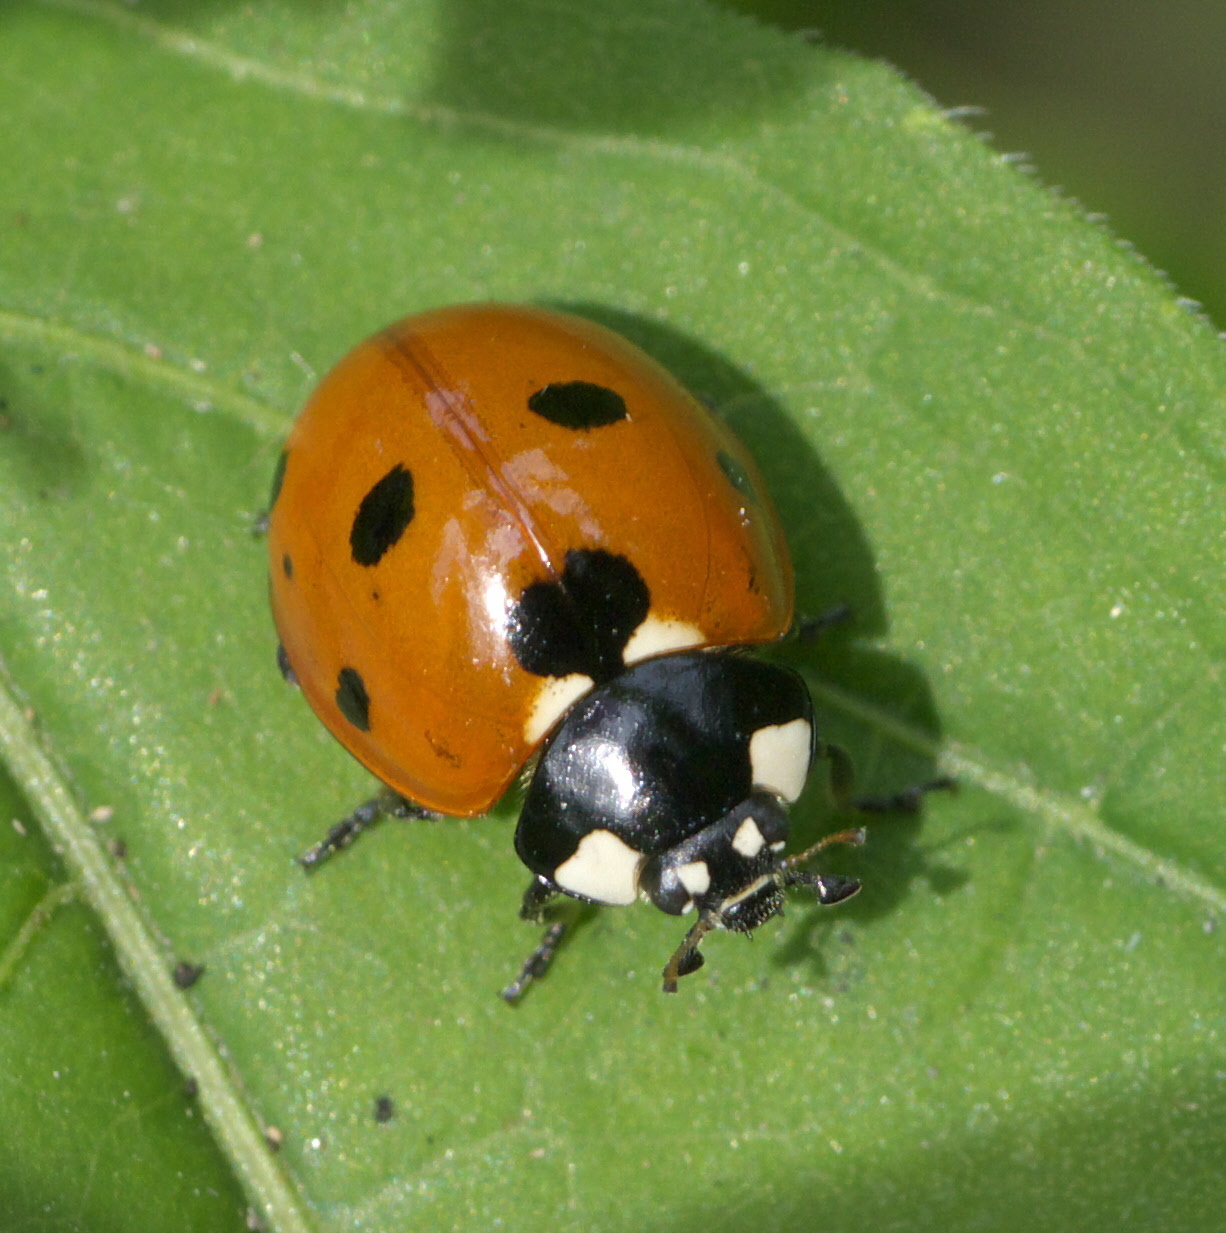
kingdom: Animalia
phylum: Arthropoda
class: Insecta
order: Coleoptera
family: Coccinellidae
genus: Coccinella
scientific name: Coccinella septempunctata
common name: Sevenspotted lady beetle
